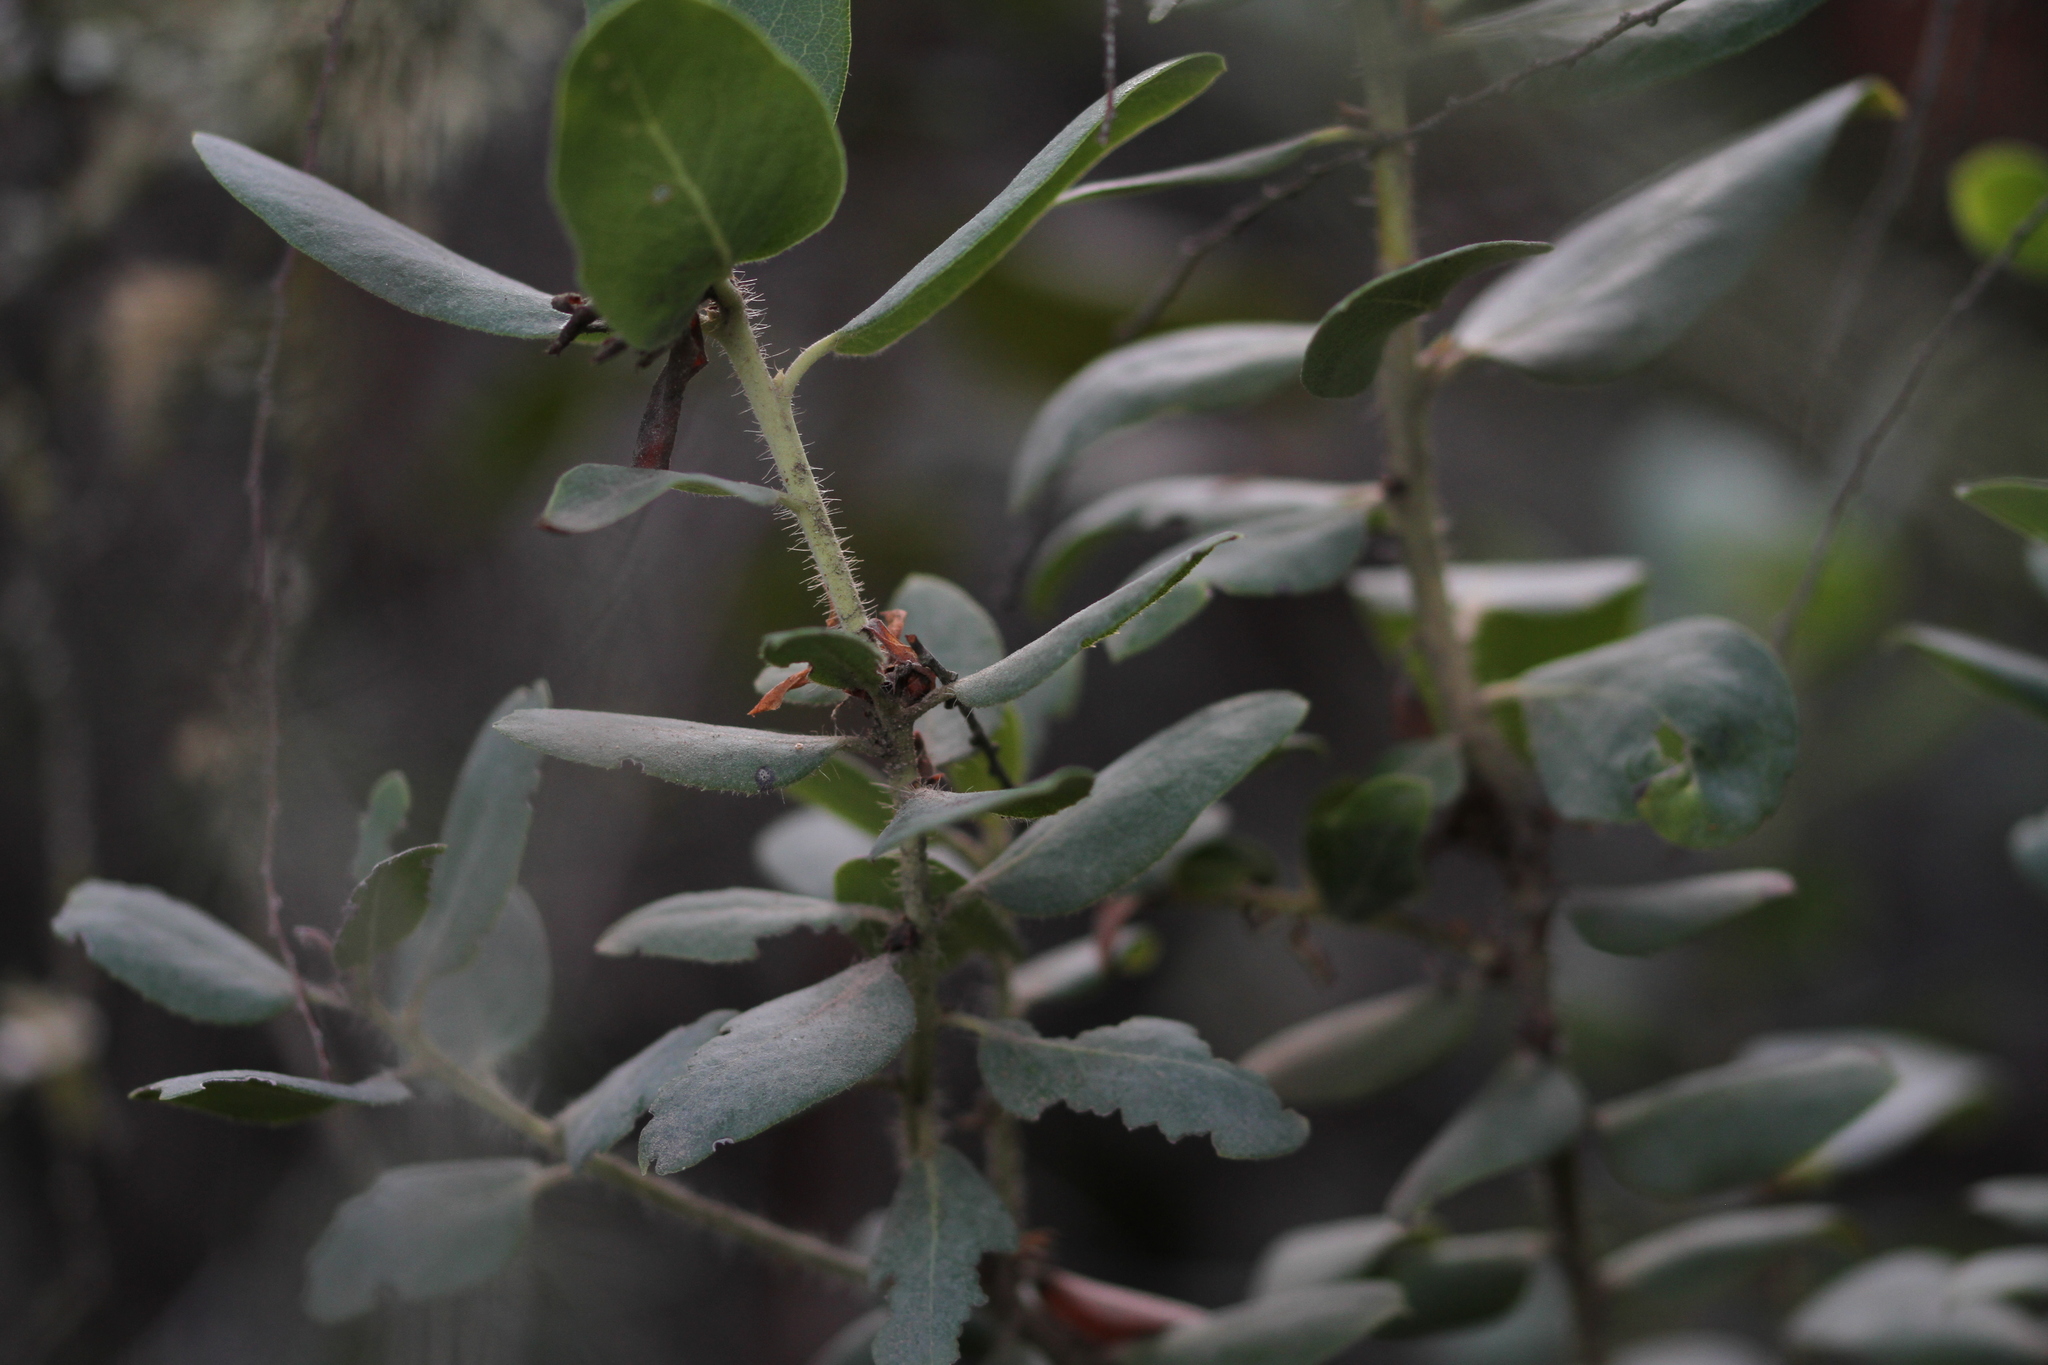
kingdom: Plantae
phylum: Tracheophyta
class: Magnoliopsida
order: Ericales
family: Ericaceae
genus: Arctostaphylos
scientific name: Arctostaphylos crustacea
